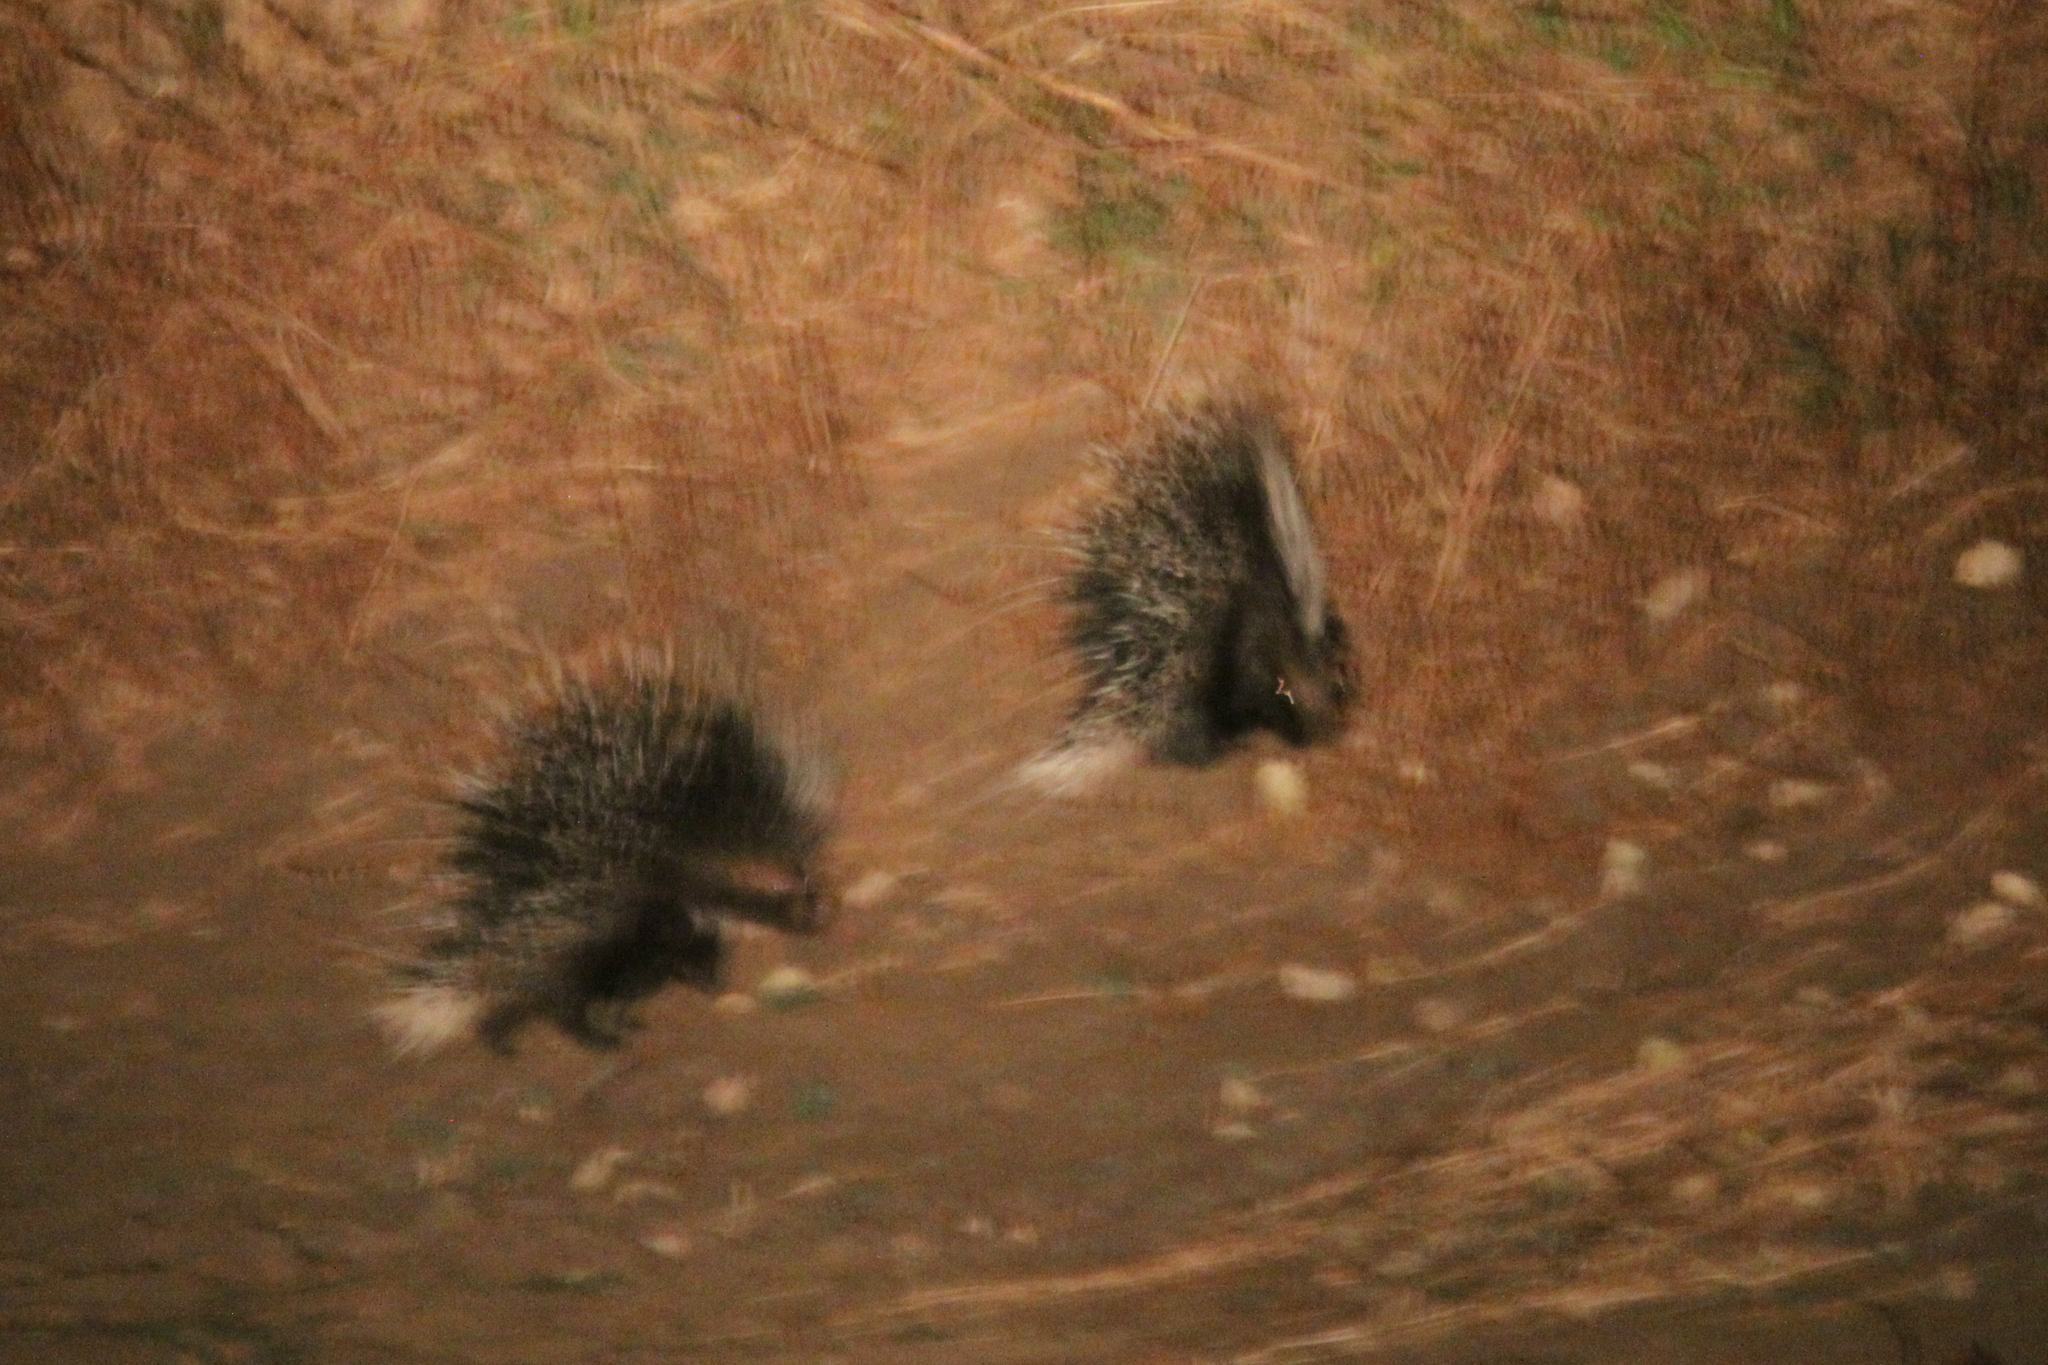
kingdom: Animalia
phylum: Chordata
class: Mammalia
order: Rodentia
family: Hystricidae
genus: Hystrix
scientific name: Hystrix africaeaustralis
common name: Cape porcupine
